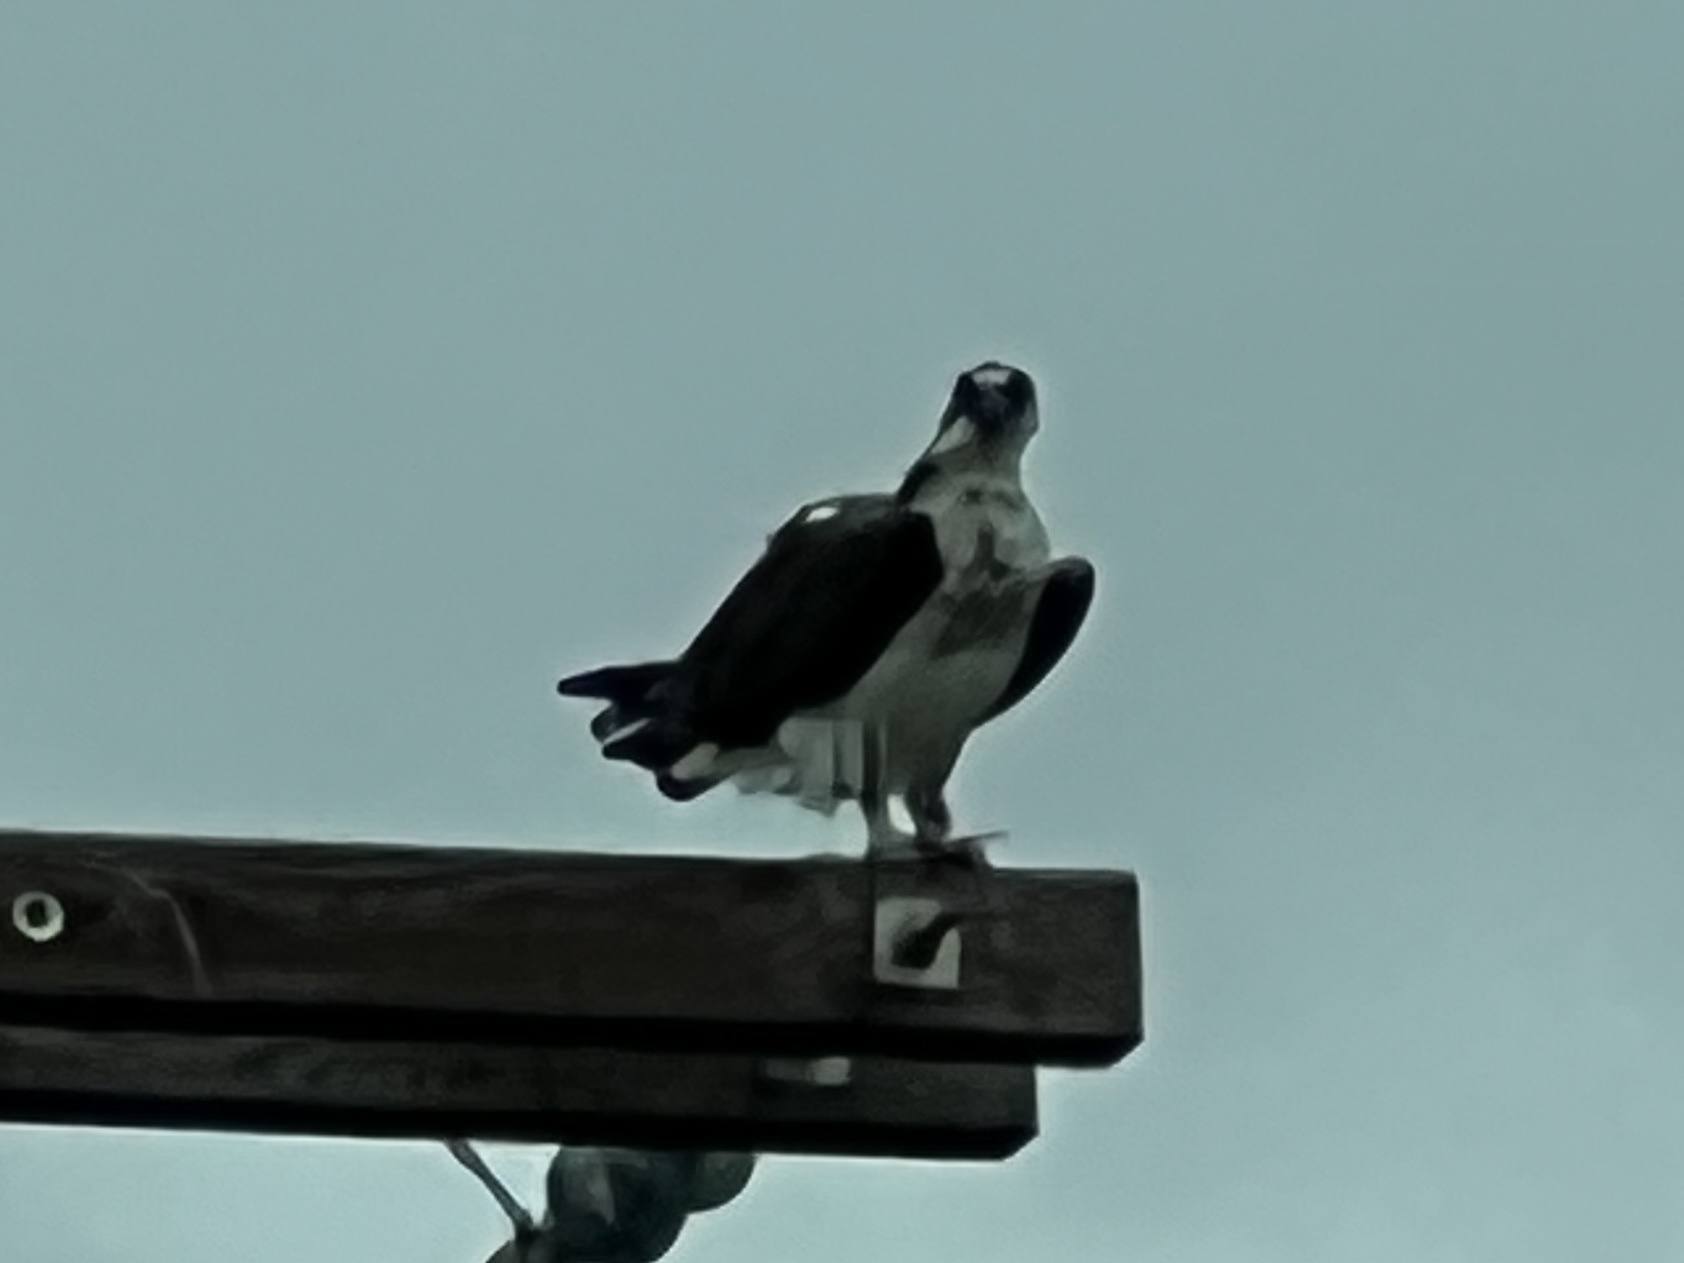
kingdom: Animalia
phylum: Chordata
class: Aves
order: Accipitriformes
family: Pandionidae
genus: Pandion
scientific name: Pandion haliaetus
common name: Osprey
